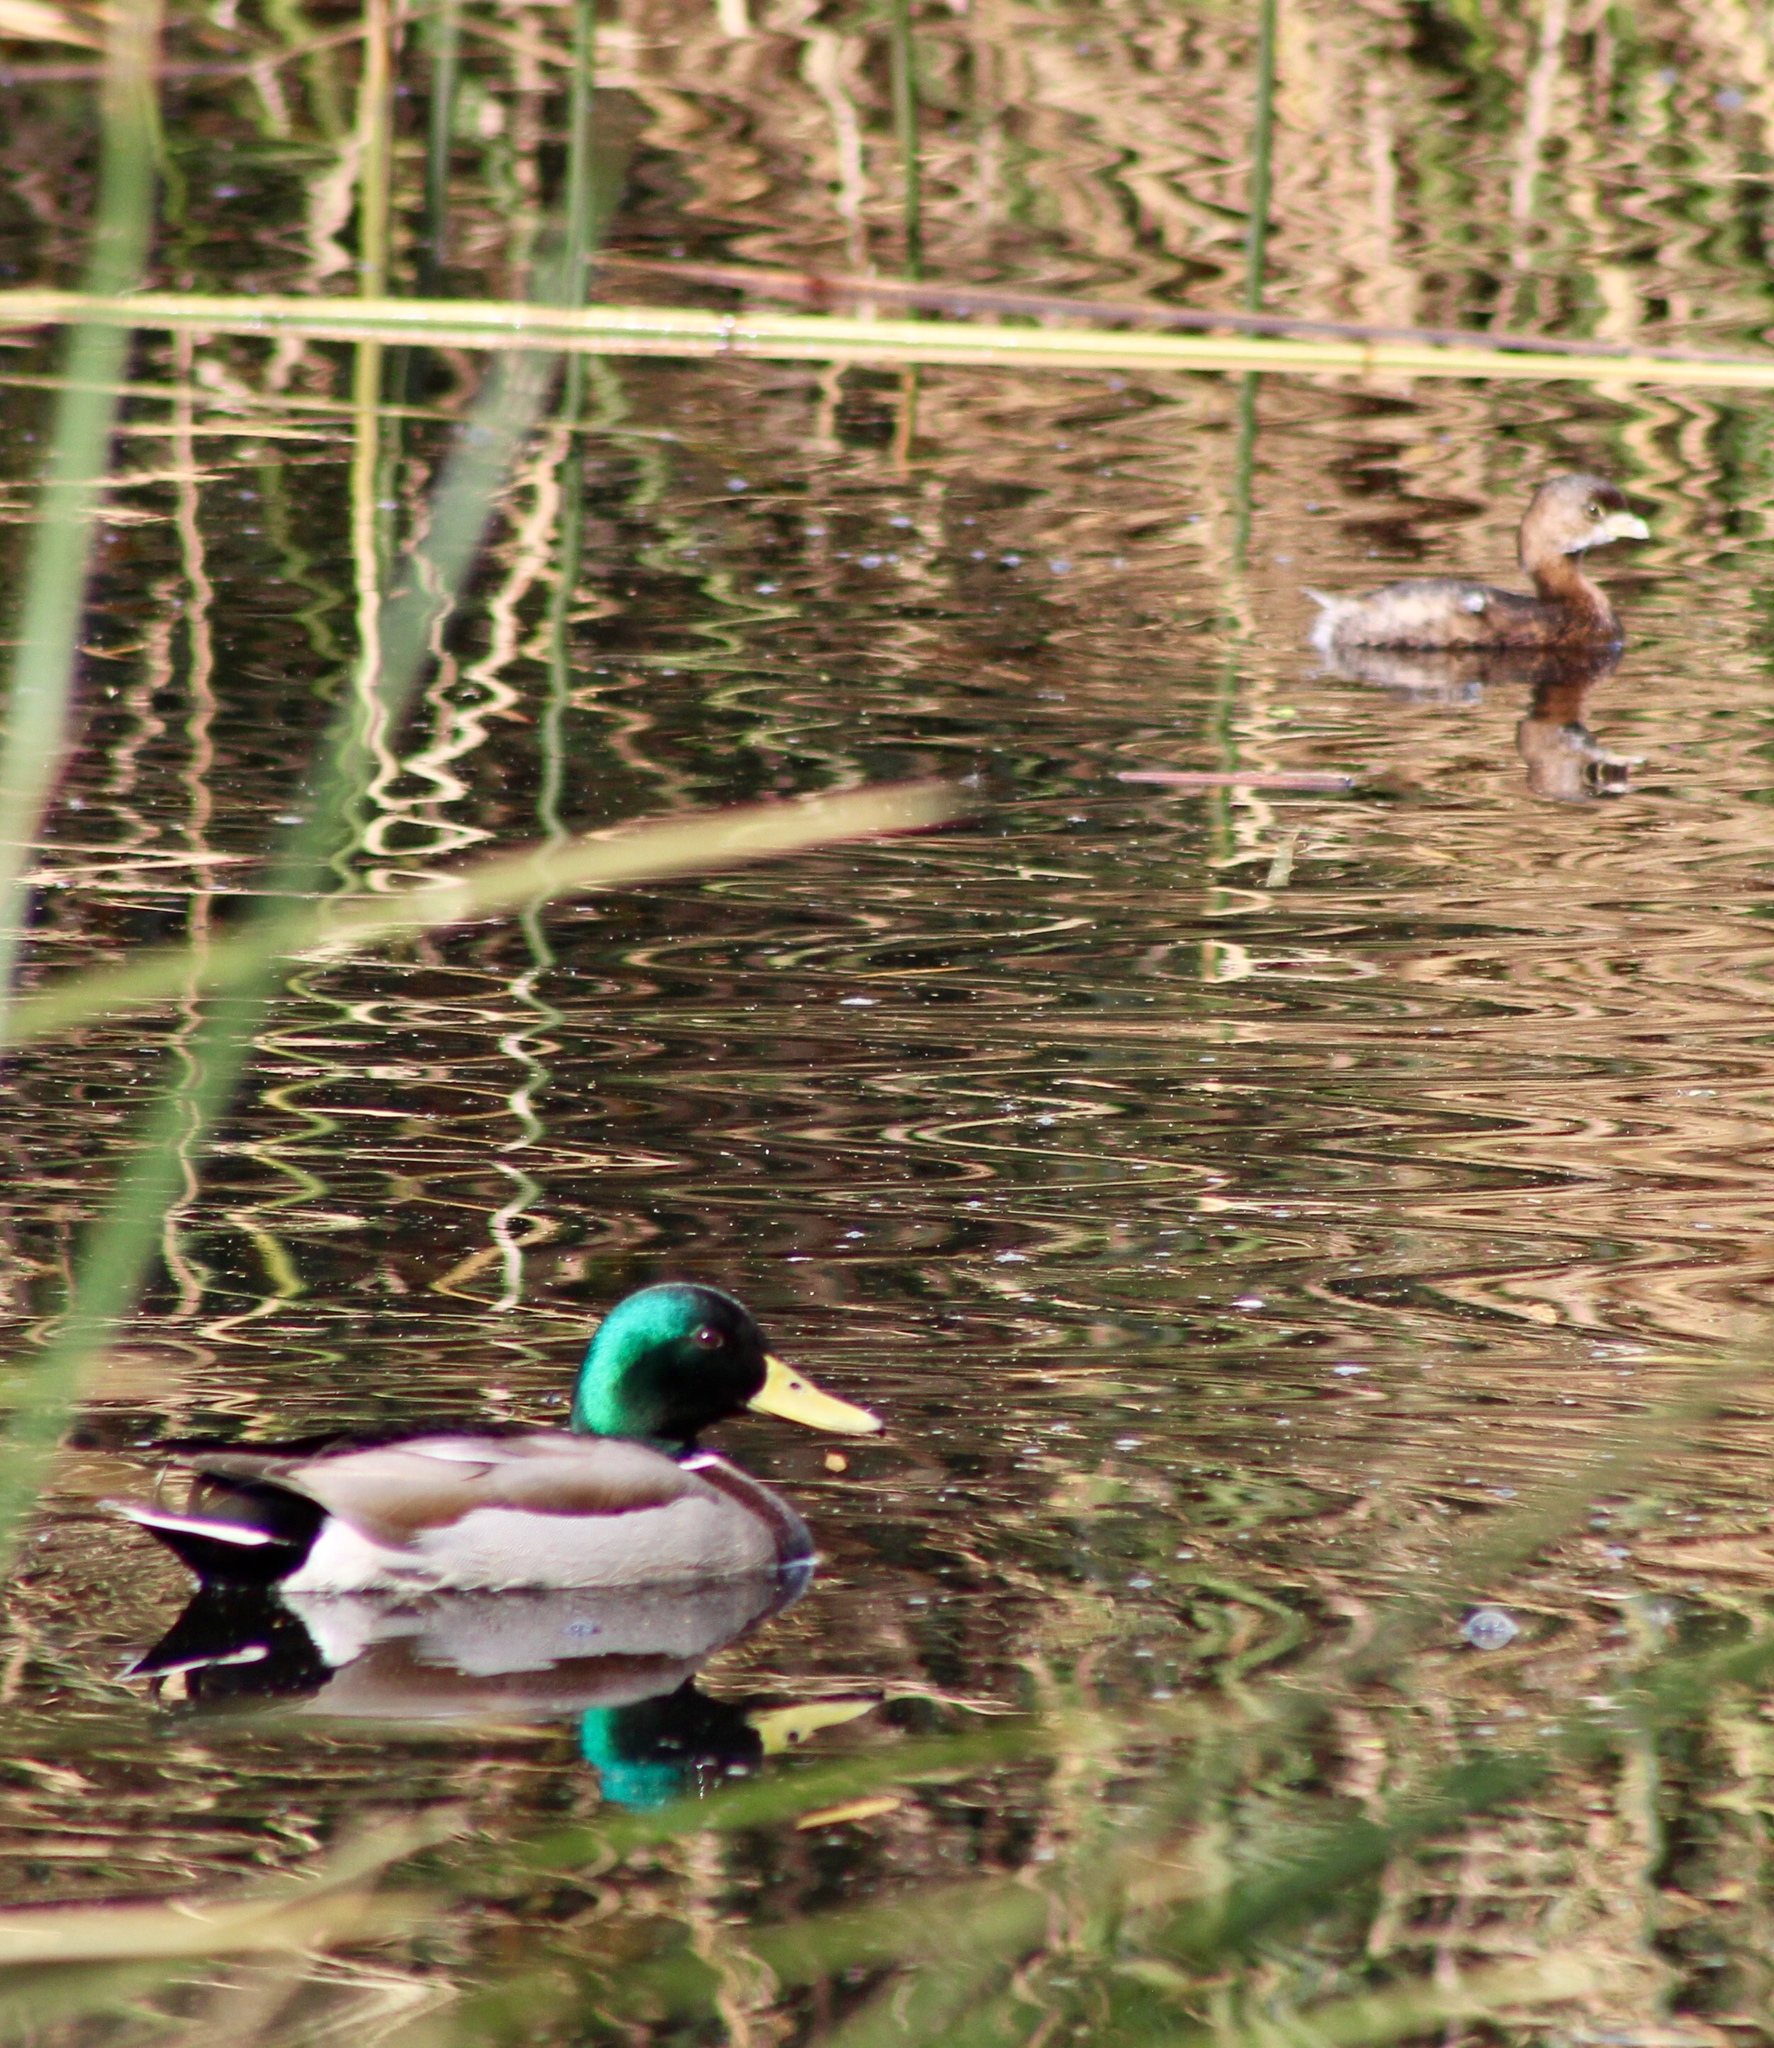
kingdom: Animalia
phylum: Chordata
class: Aves
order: Anseriformes
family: Anatidae
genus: Anas
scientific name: Anas platyrhynchos
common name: Mallard
